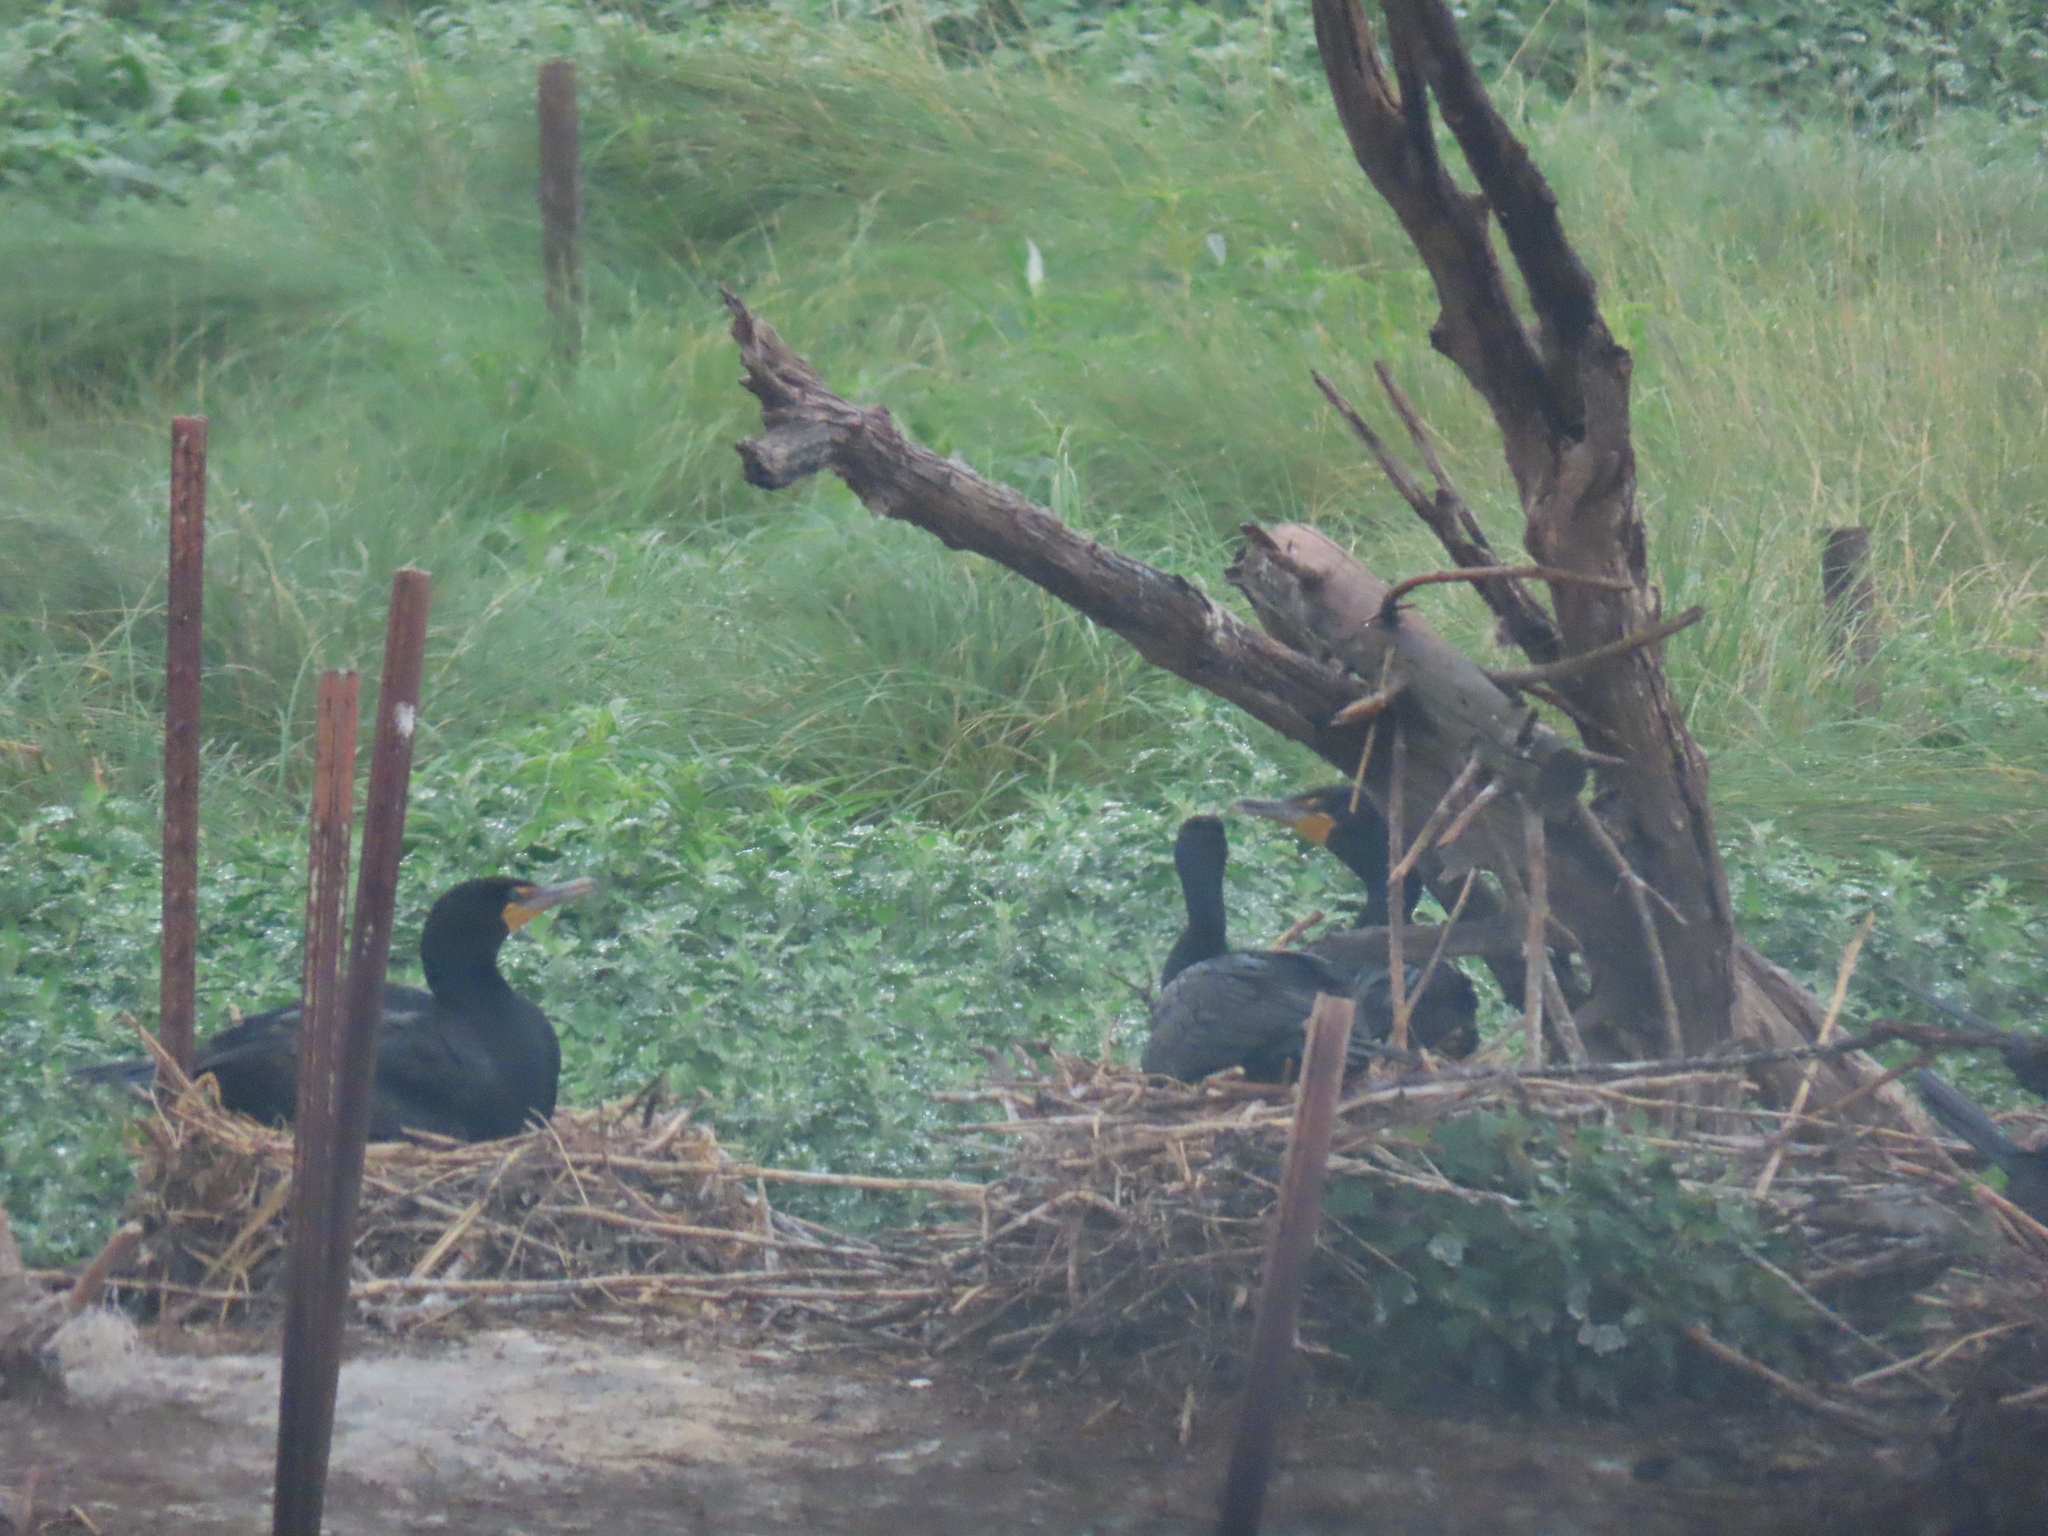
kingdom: Animalia
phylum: Chordata
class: Aves
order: Suliformes
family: Phalacrocoracidae
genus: Phalacrocorax
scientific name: Phalacrocorax auritus
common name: Double-crested cormorant
